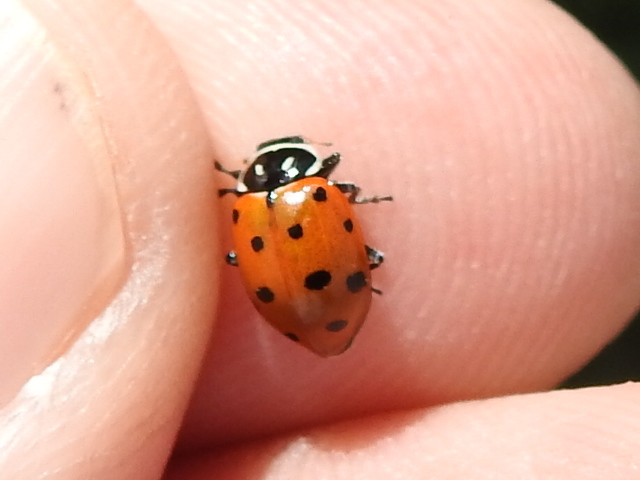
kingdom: Animalia
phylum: Arthropoda
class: Insecta
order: Coleoptera
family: Coccinellidae
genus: Hippodamia
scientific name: Hippodamia convergens
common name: Convergent lady beetle
